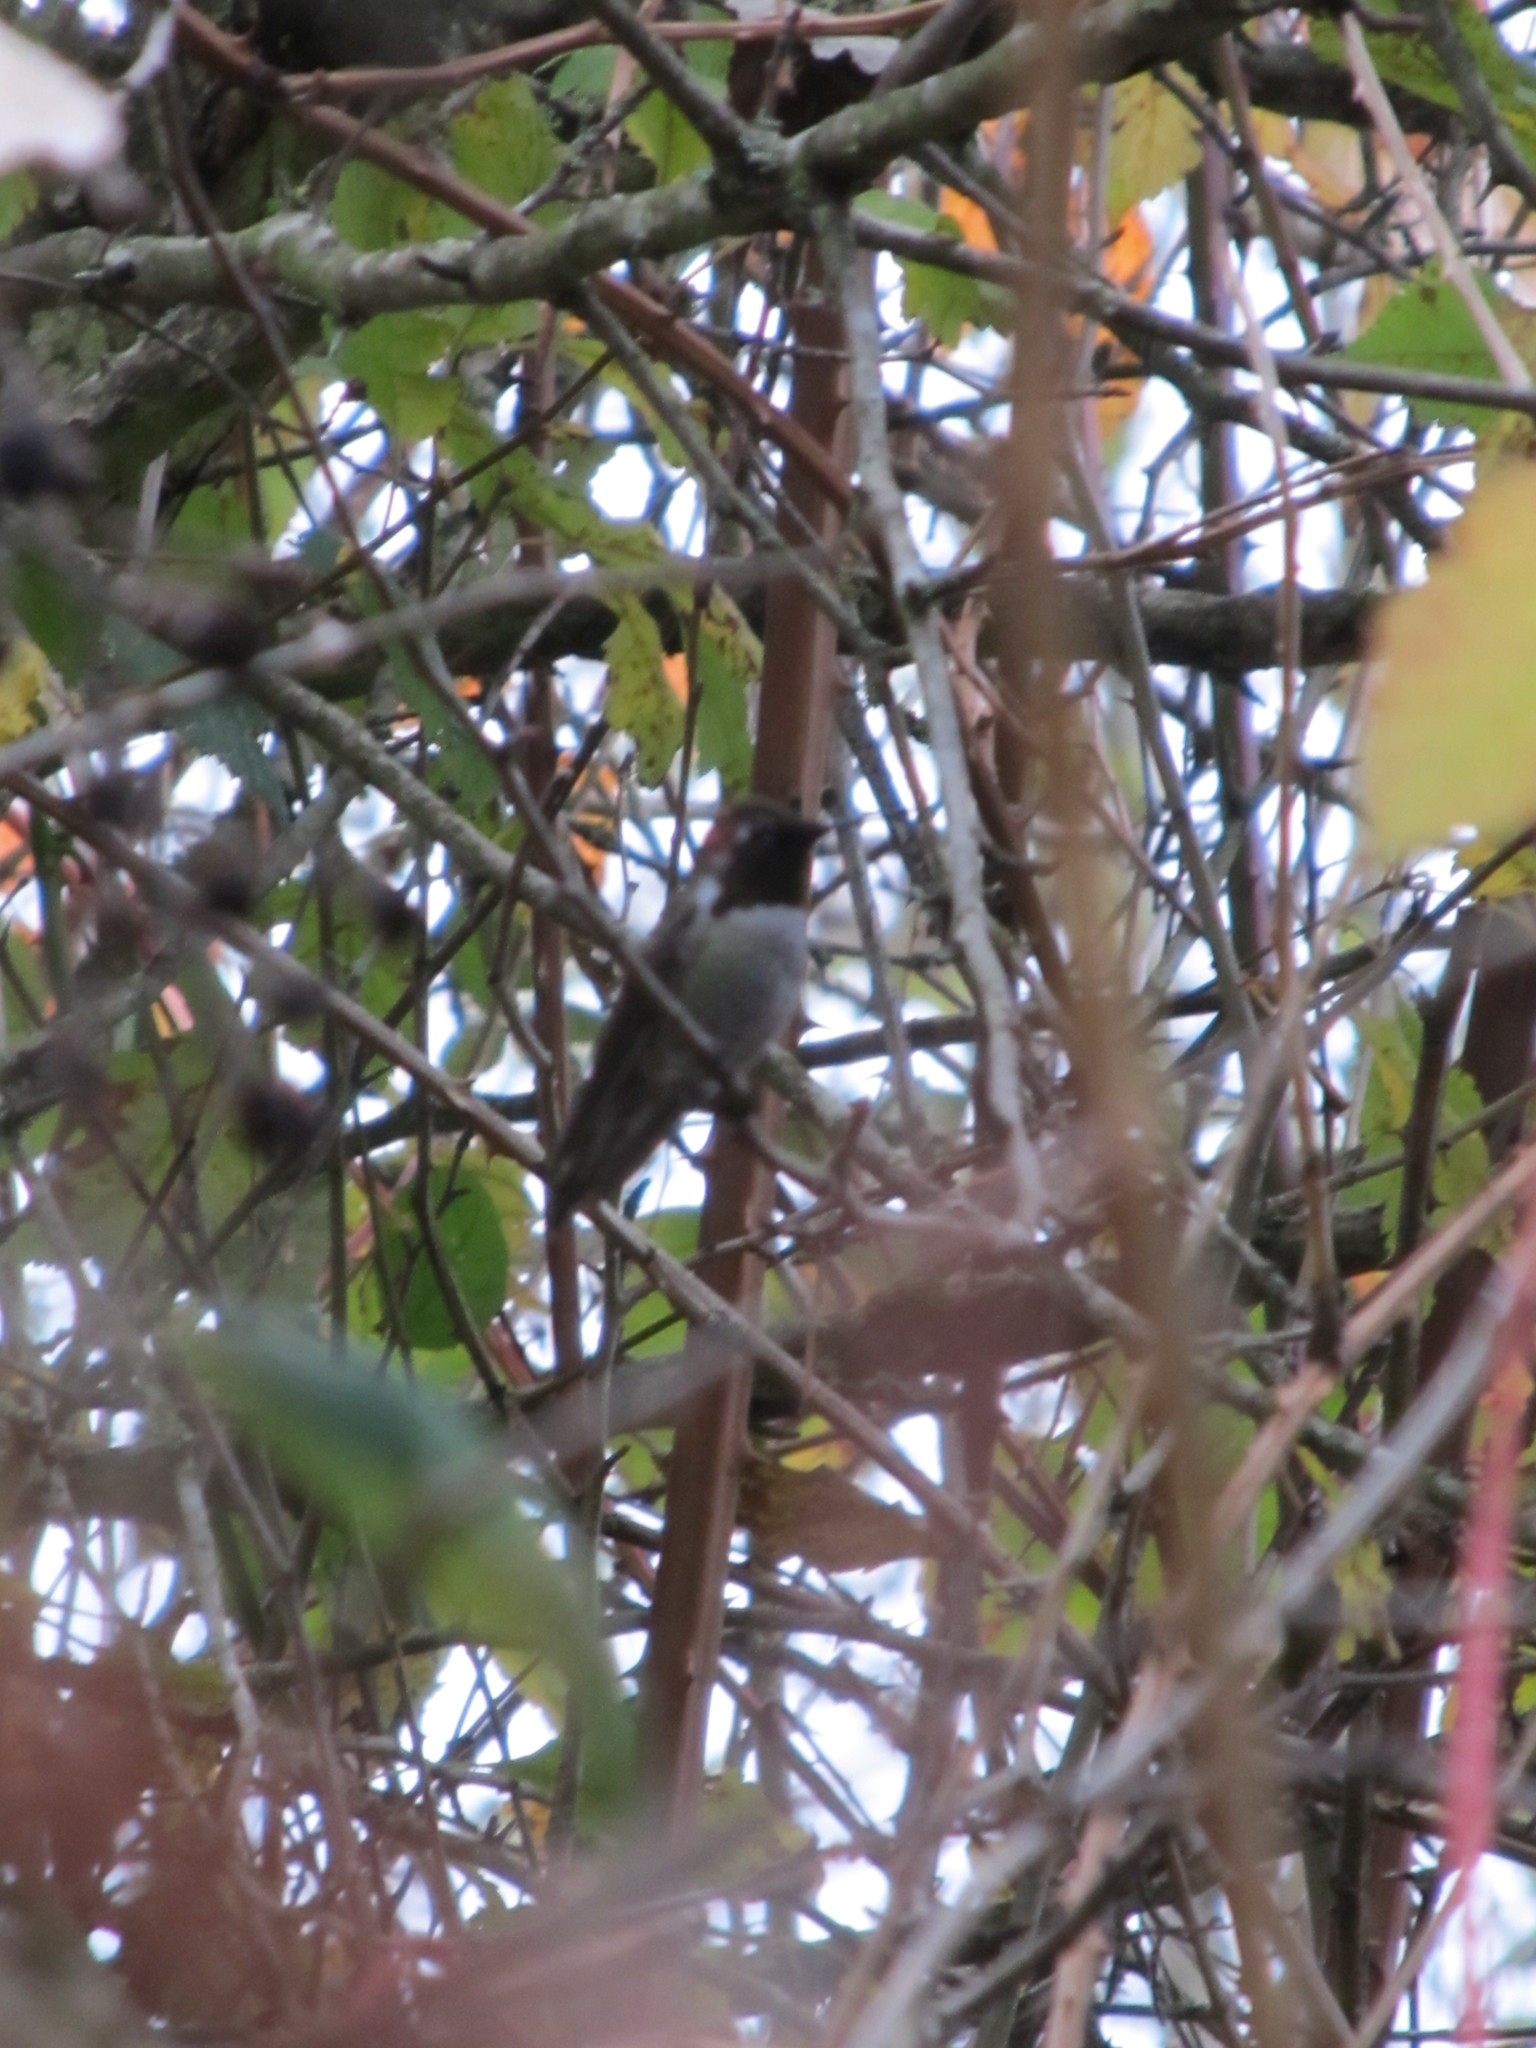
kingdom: Animalia
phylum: Chordata
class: Aves
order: Apodiformes
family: Trochilidae
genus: Calypte
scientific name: Calypte anna
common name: Anna's hummingbird
